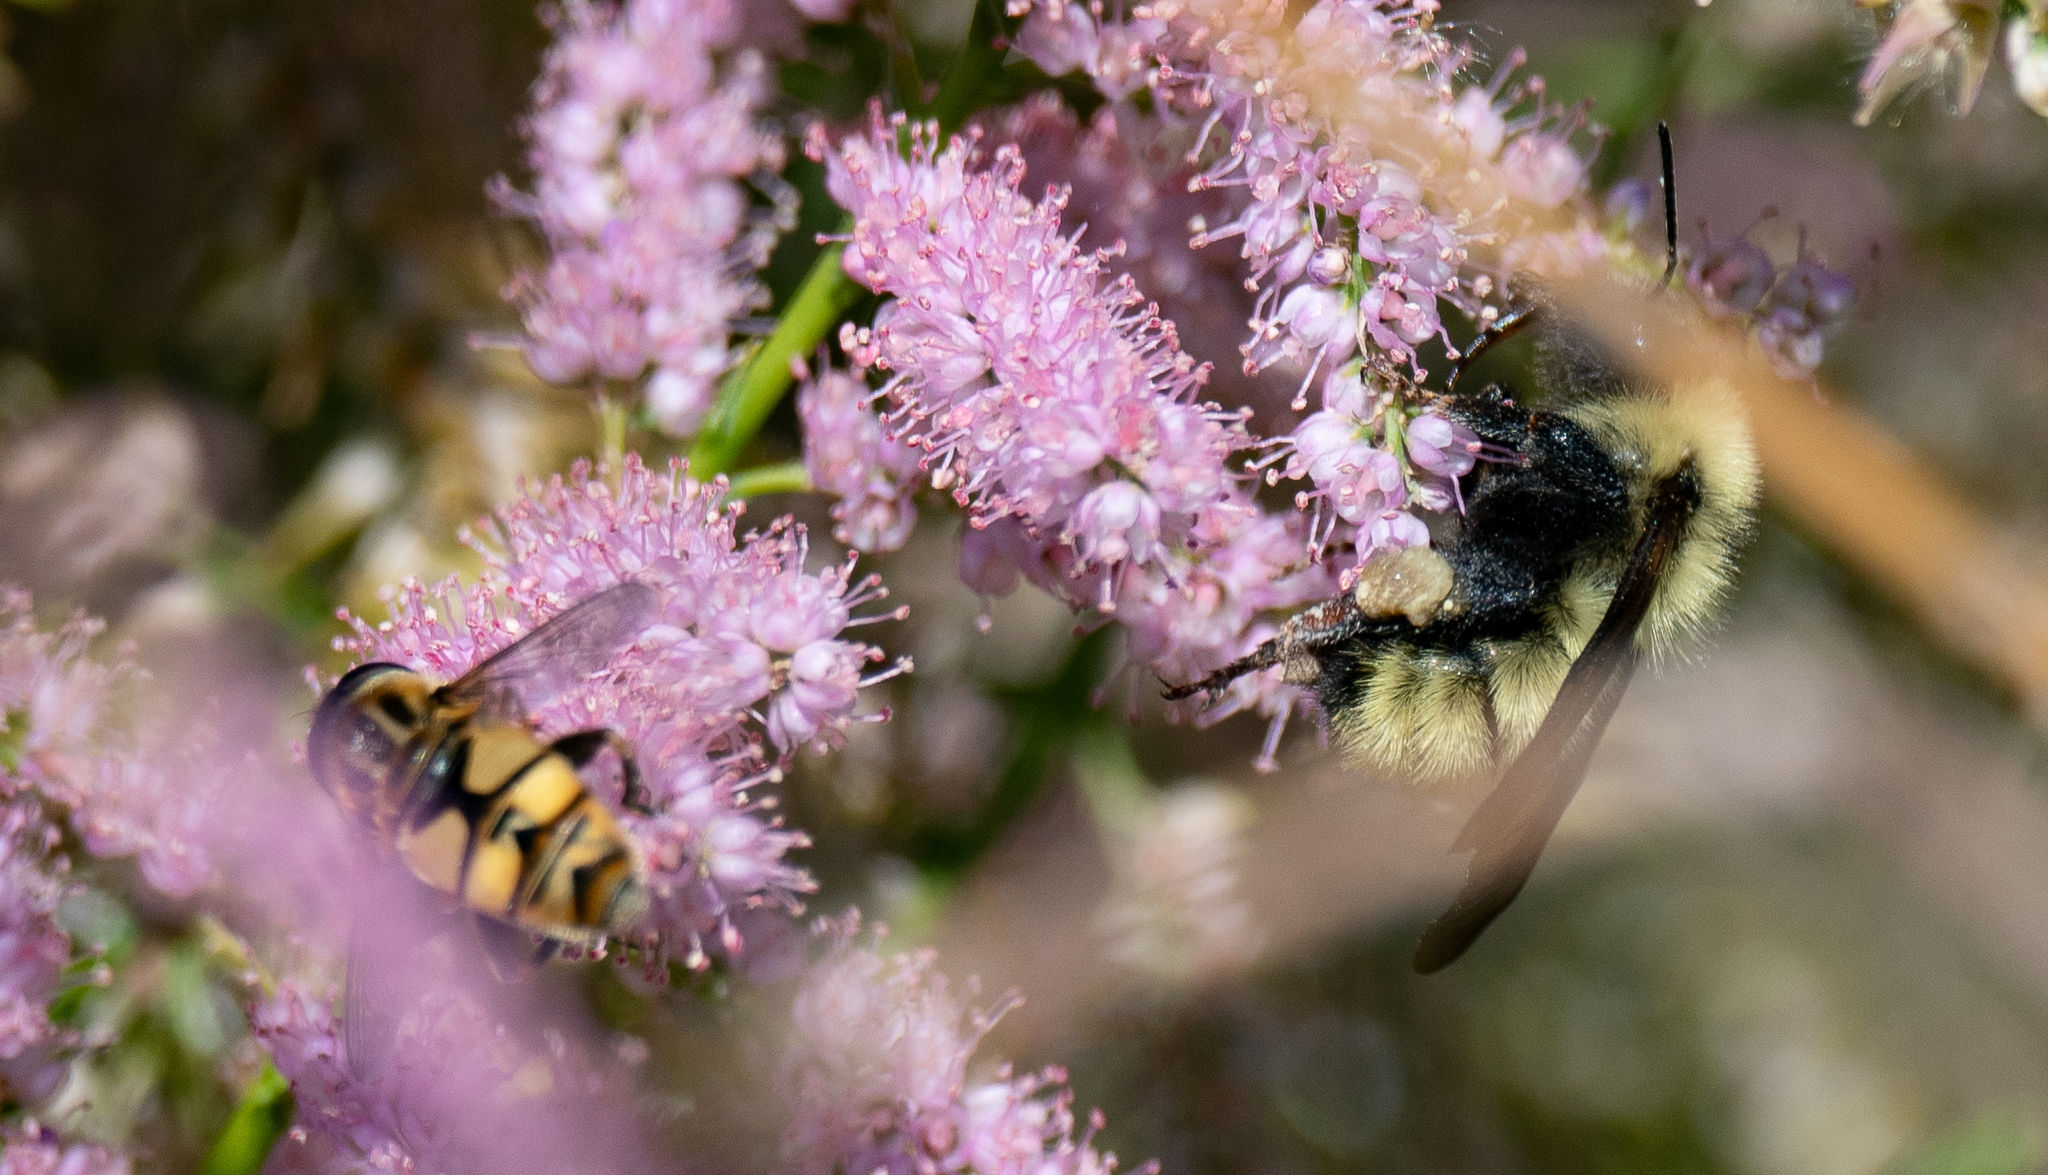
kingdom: Animalia
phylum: Arthropoda
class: Insecta
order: Hymenoptera
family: Apidae
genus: Bombus
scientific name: Bombus fervidus
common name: Yellow bumble bee
